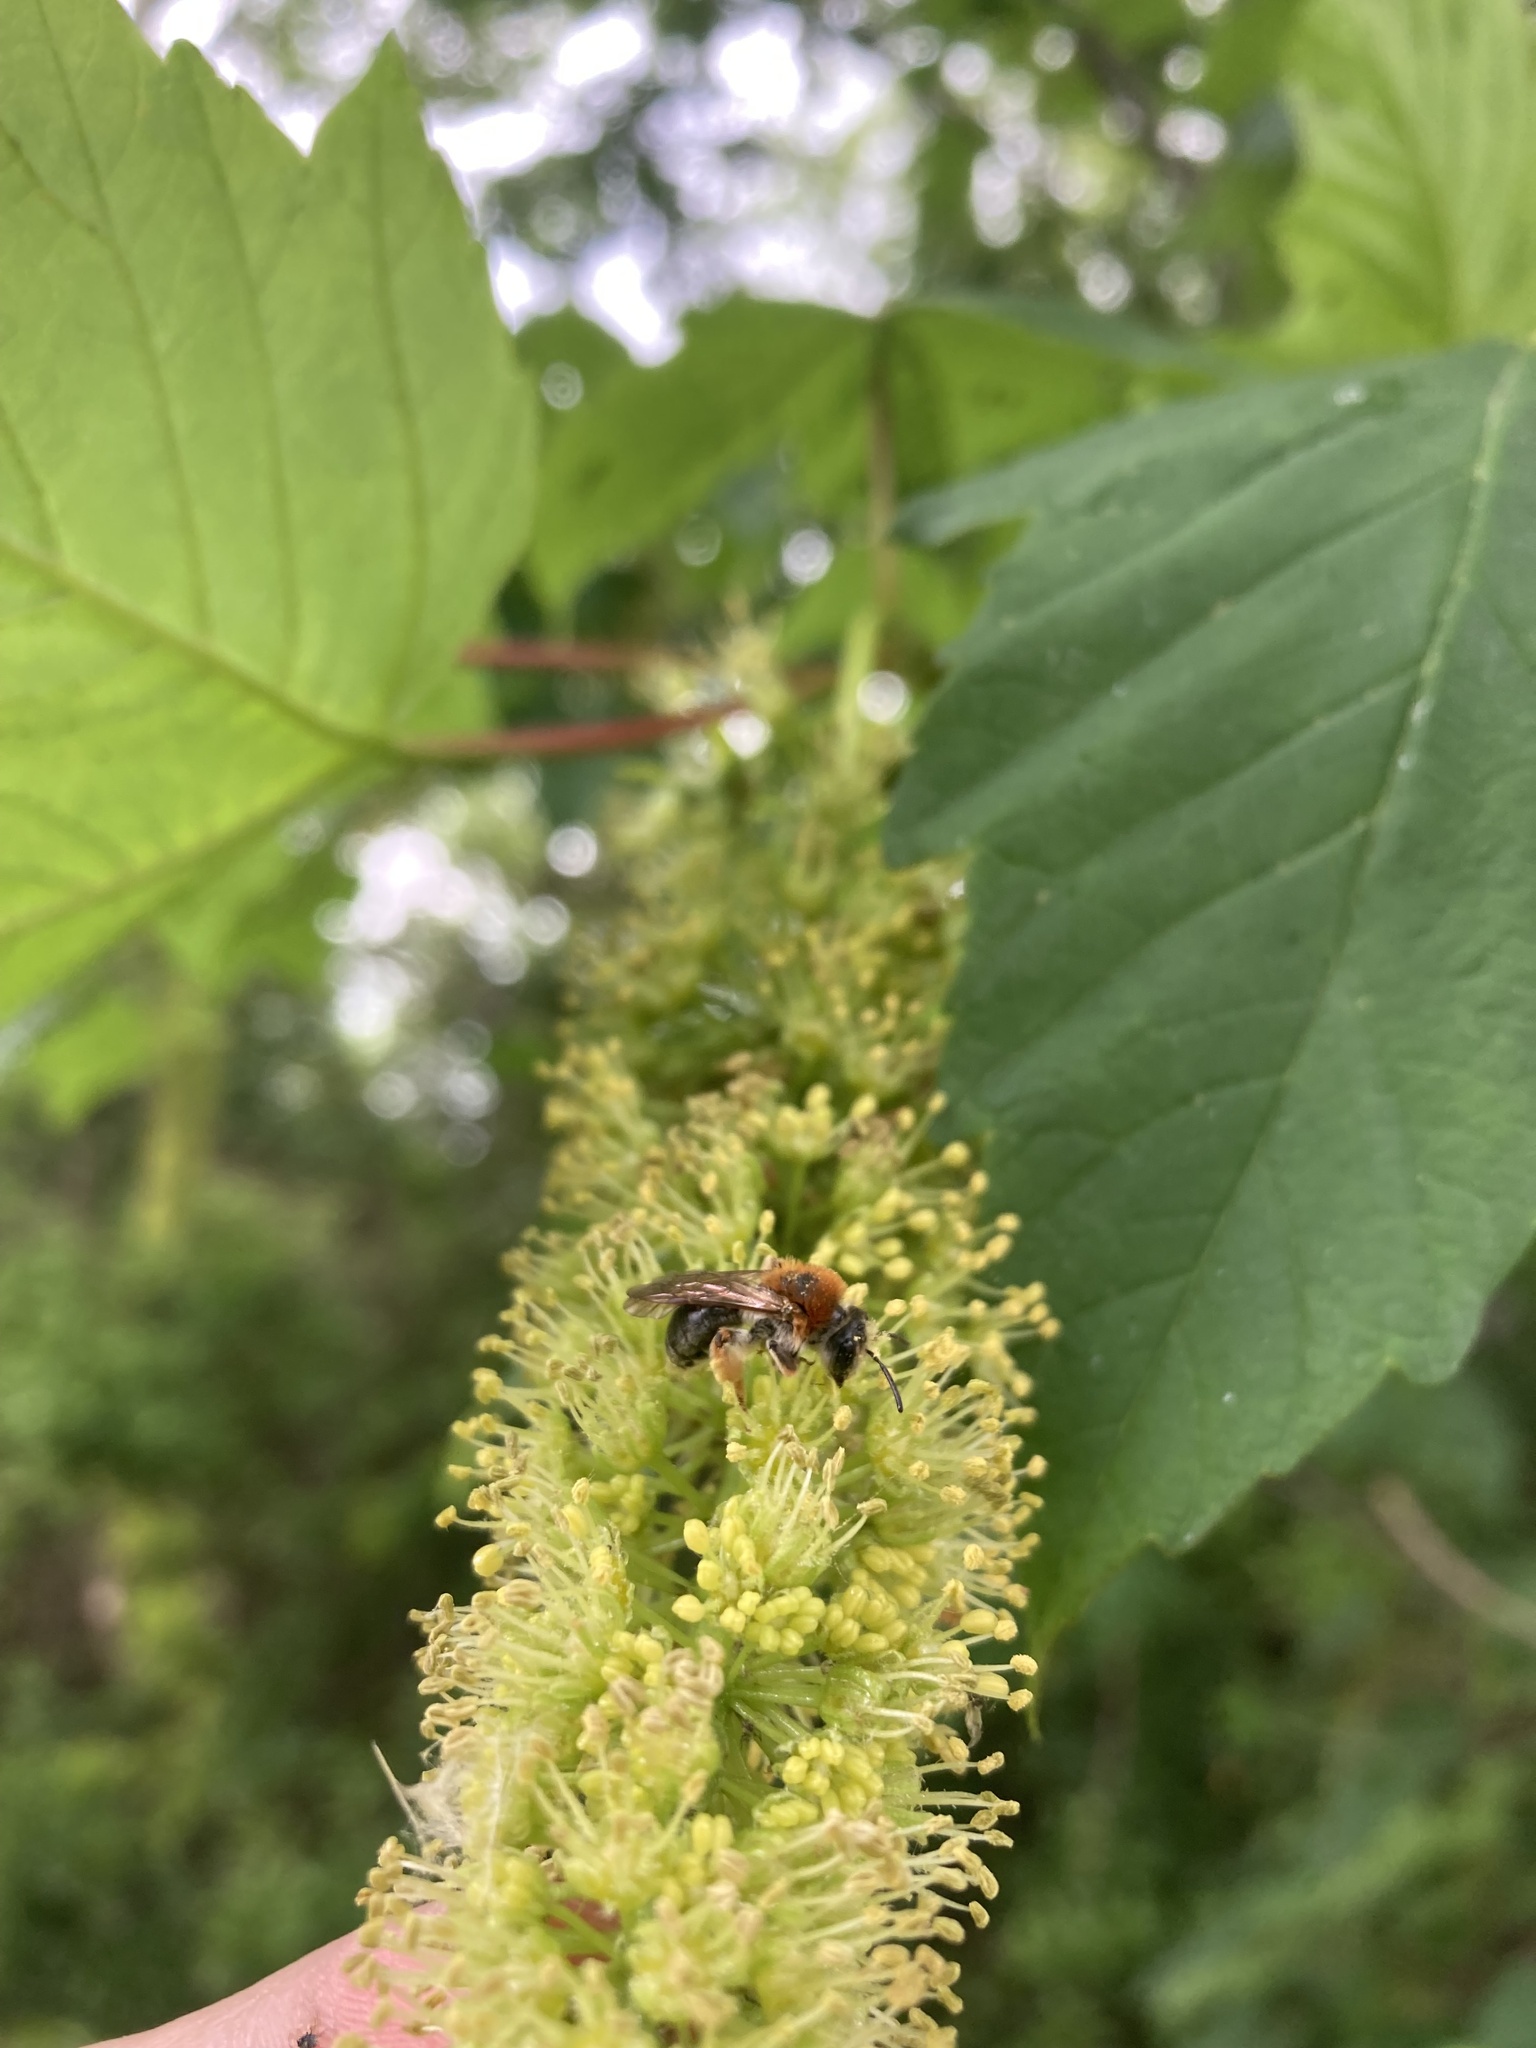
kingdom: Animalia
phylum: Arthropoda
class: Insecta
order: Hymenoptera
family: Andrenidae
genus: Andrena
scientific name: Andrena haemorrhoa
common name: Early mining bee
